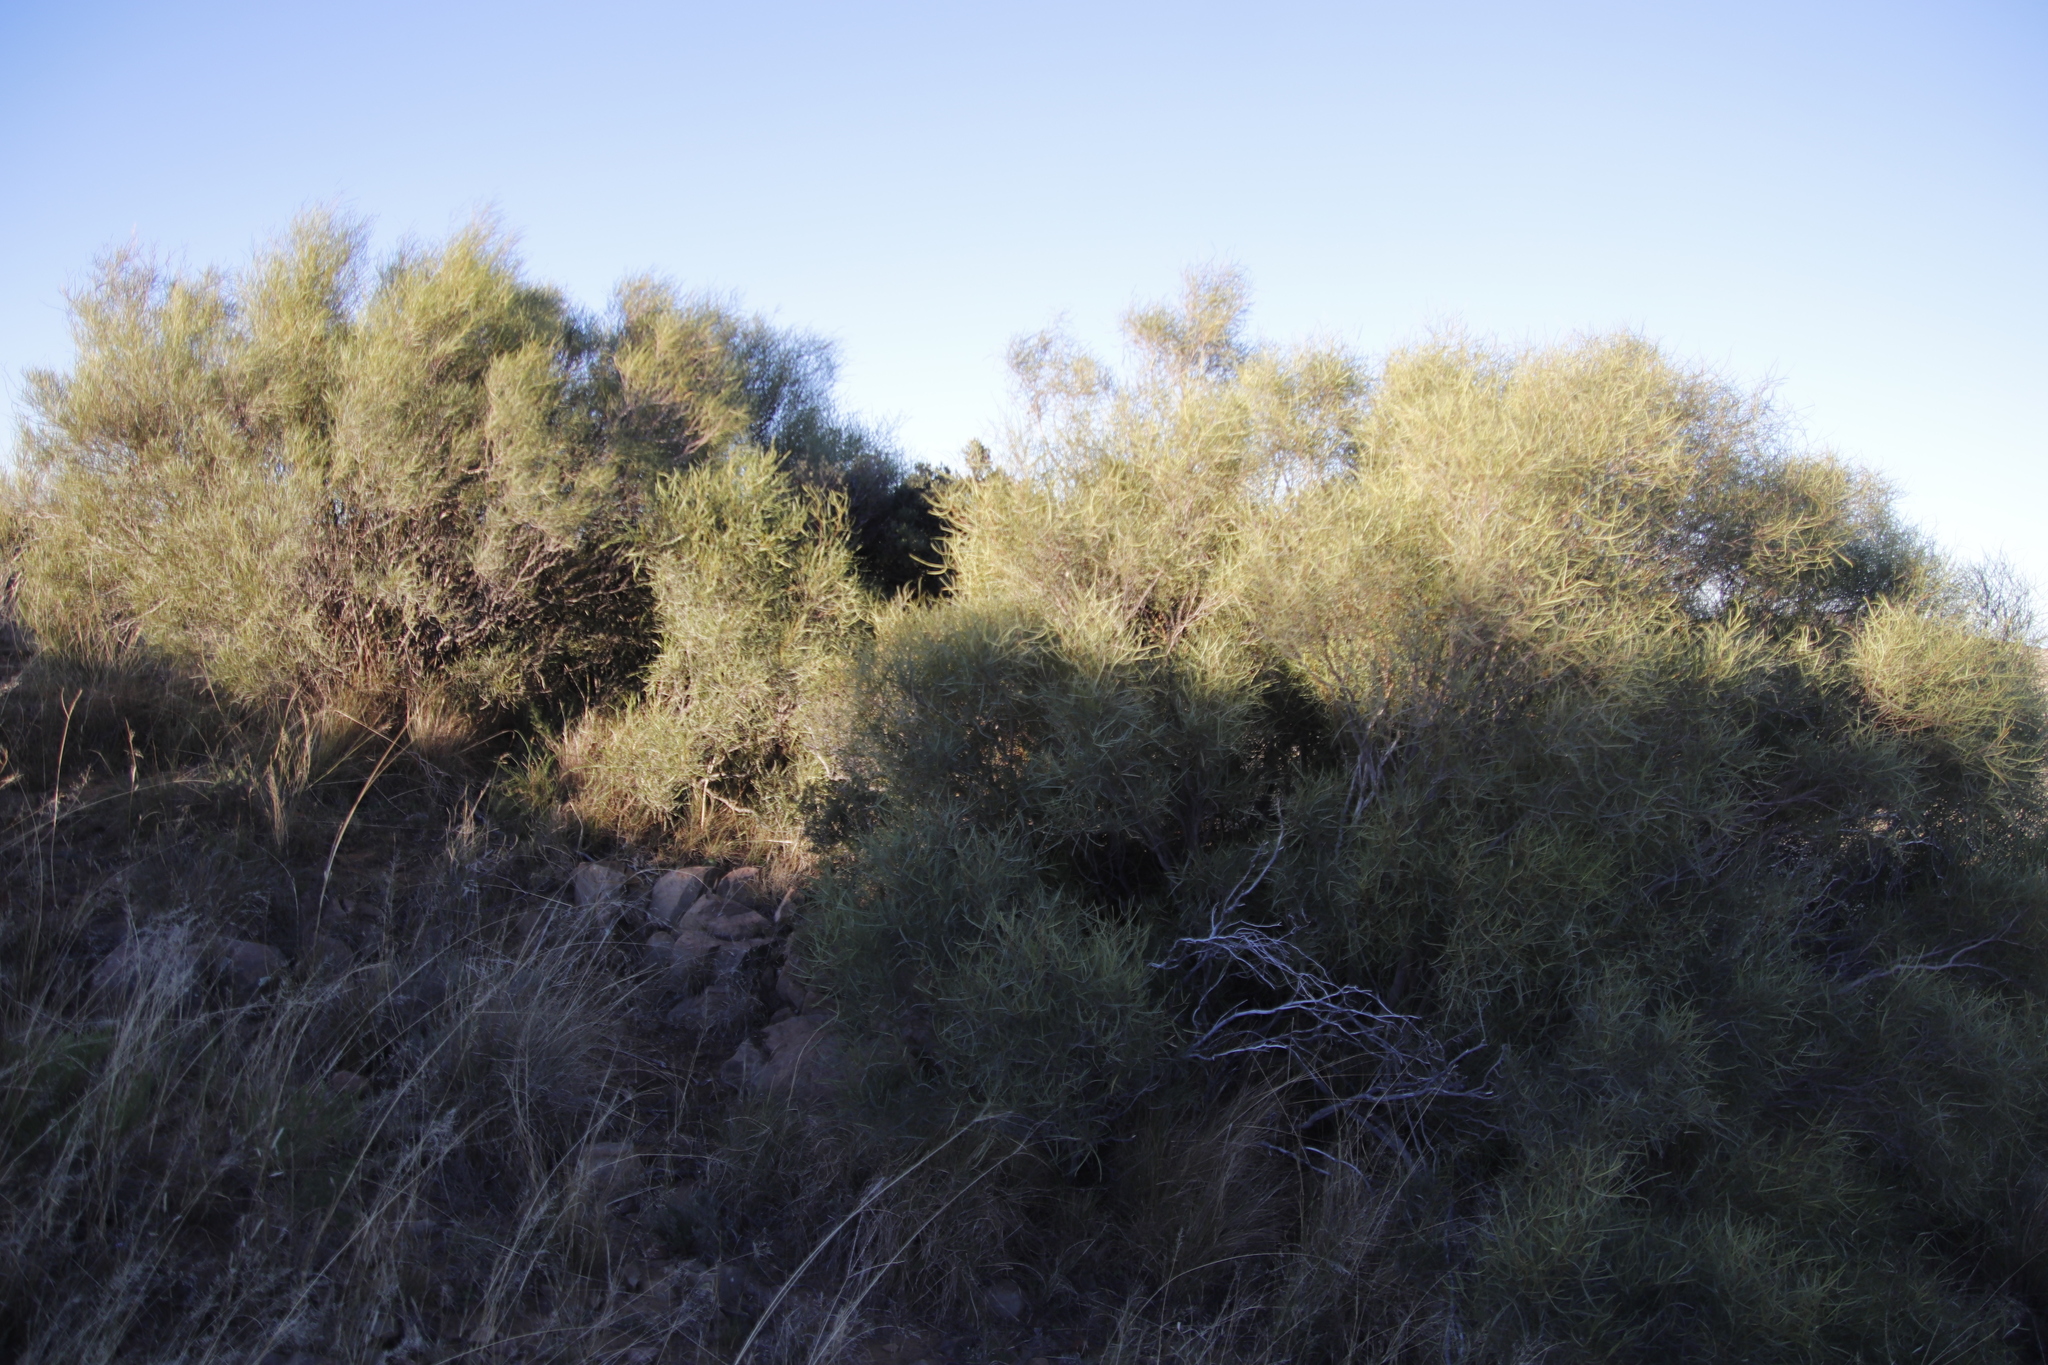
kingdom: Plantae
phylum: Tracheophyta
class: Magnoliopsida
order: Sapindales
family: Anacardiaceae
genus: Searsia
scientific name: Searsia erosa
